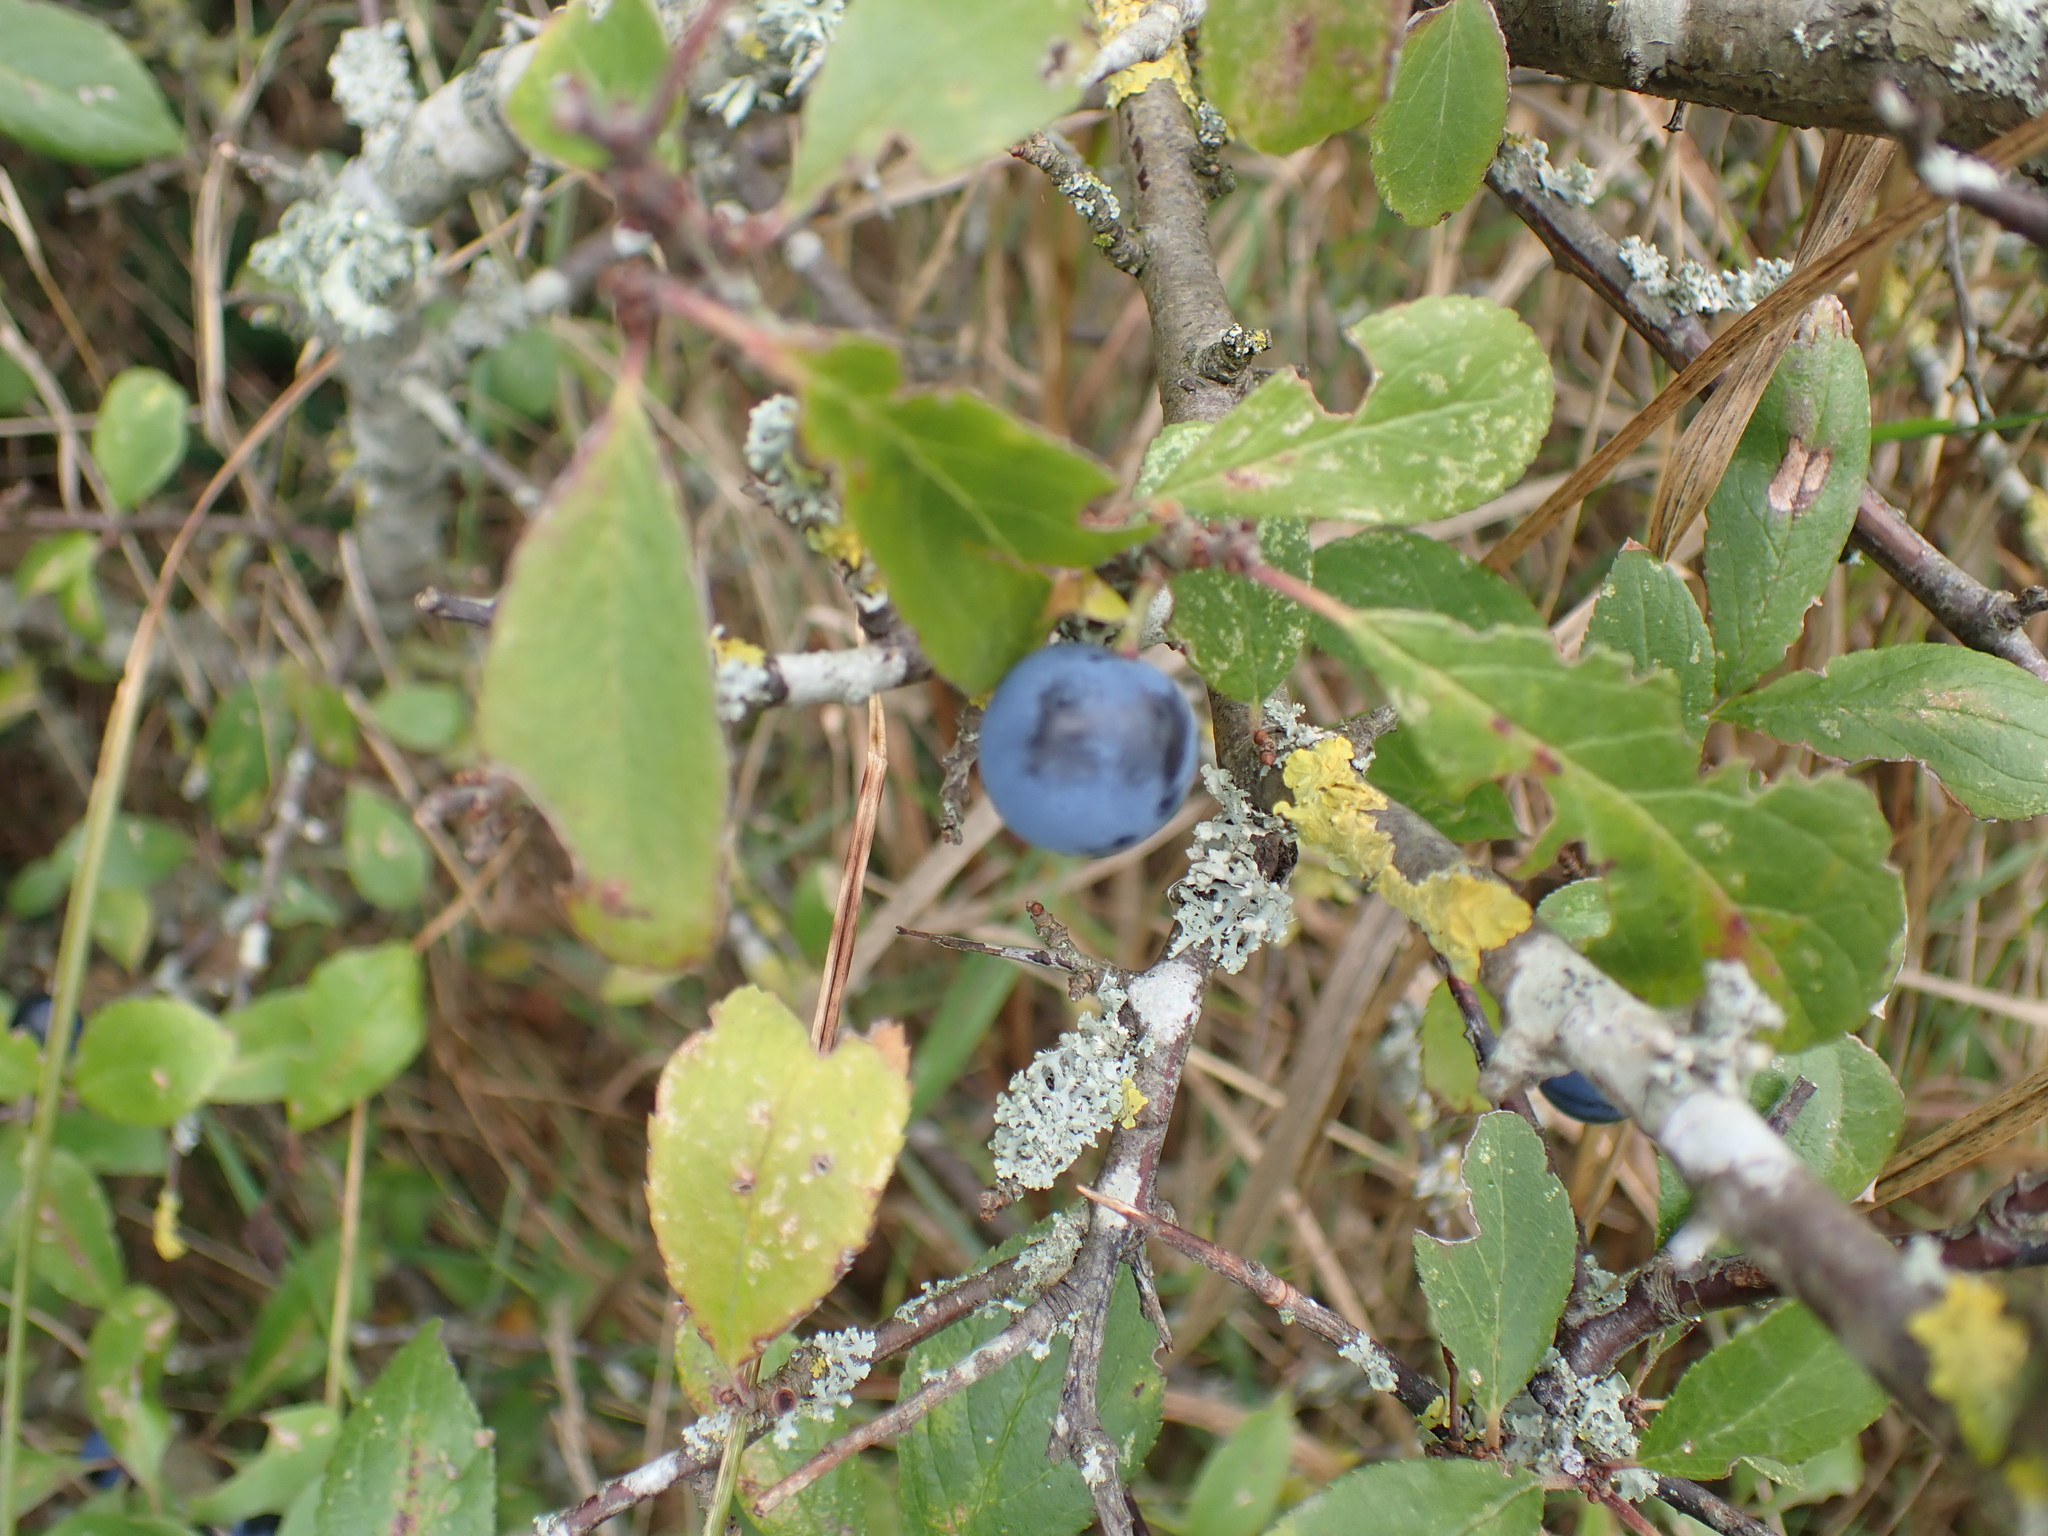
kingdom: Plantae
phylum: Tracheophyta
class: Magnoliopsida
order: Rosales
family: Rosaceae
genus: Prunus
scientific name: Prunus spinosa
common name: Blackthorn
